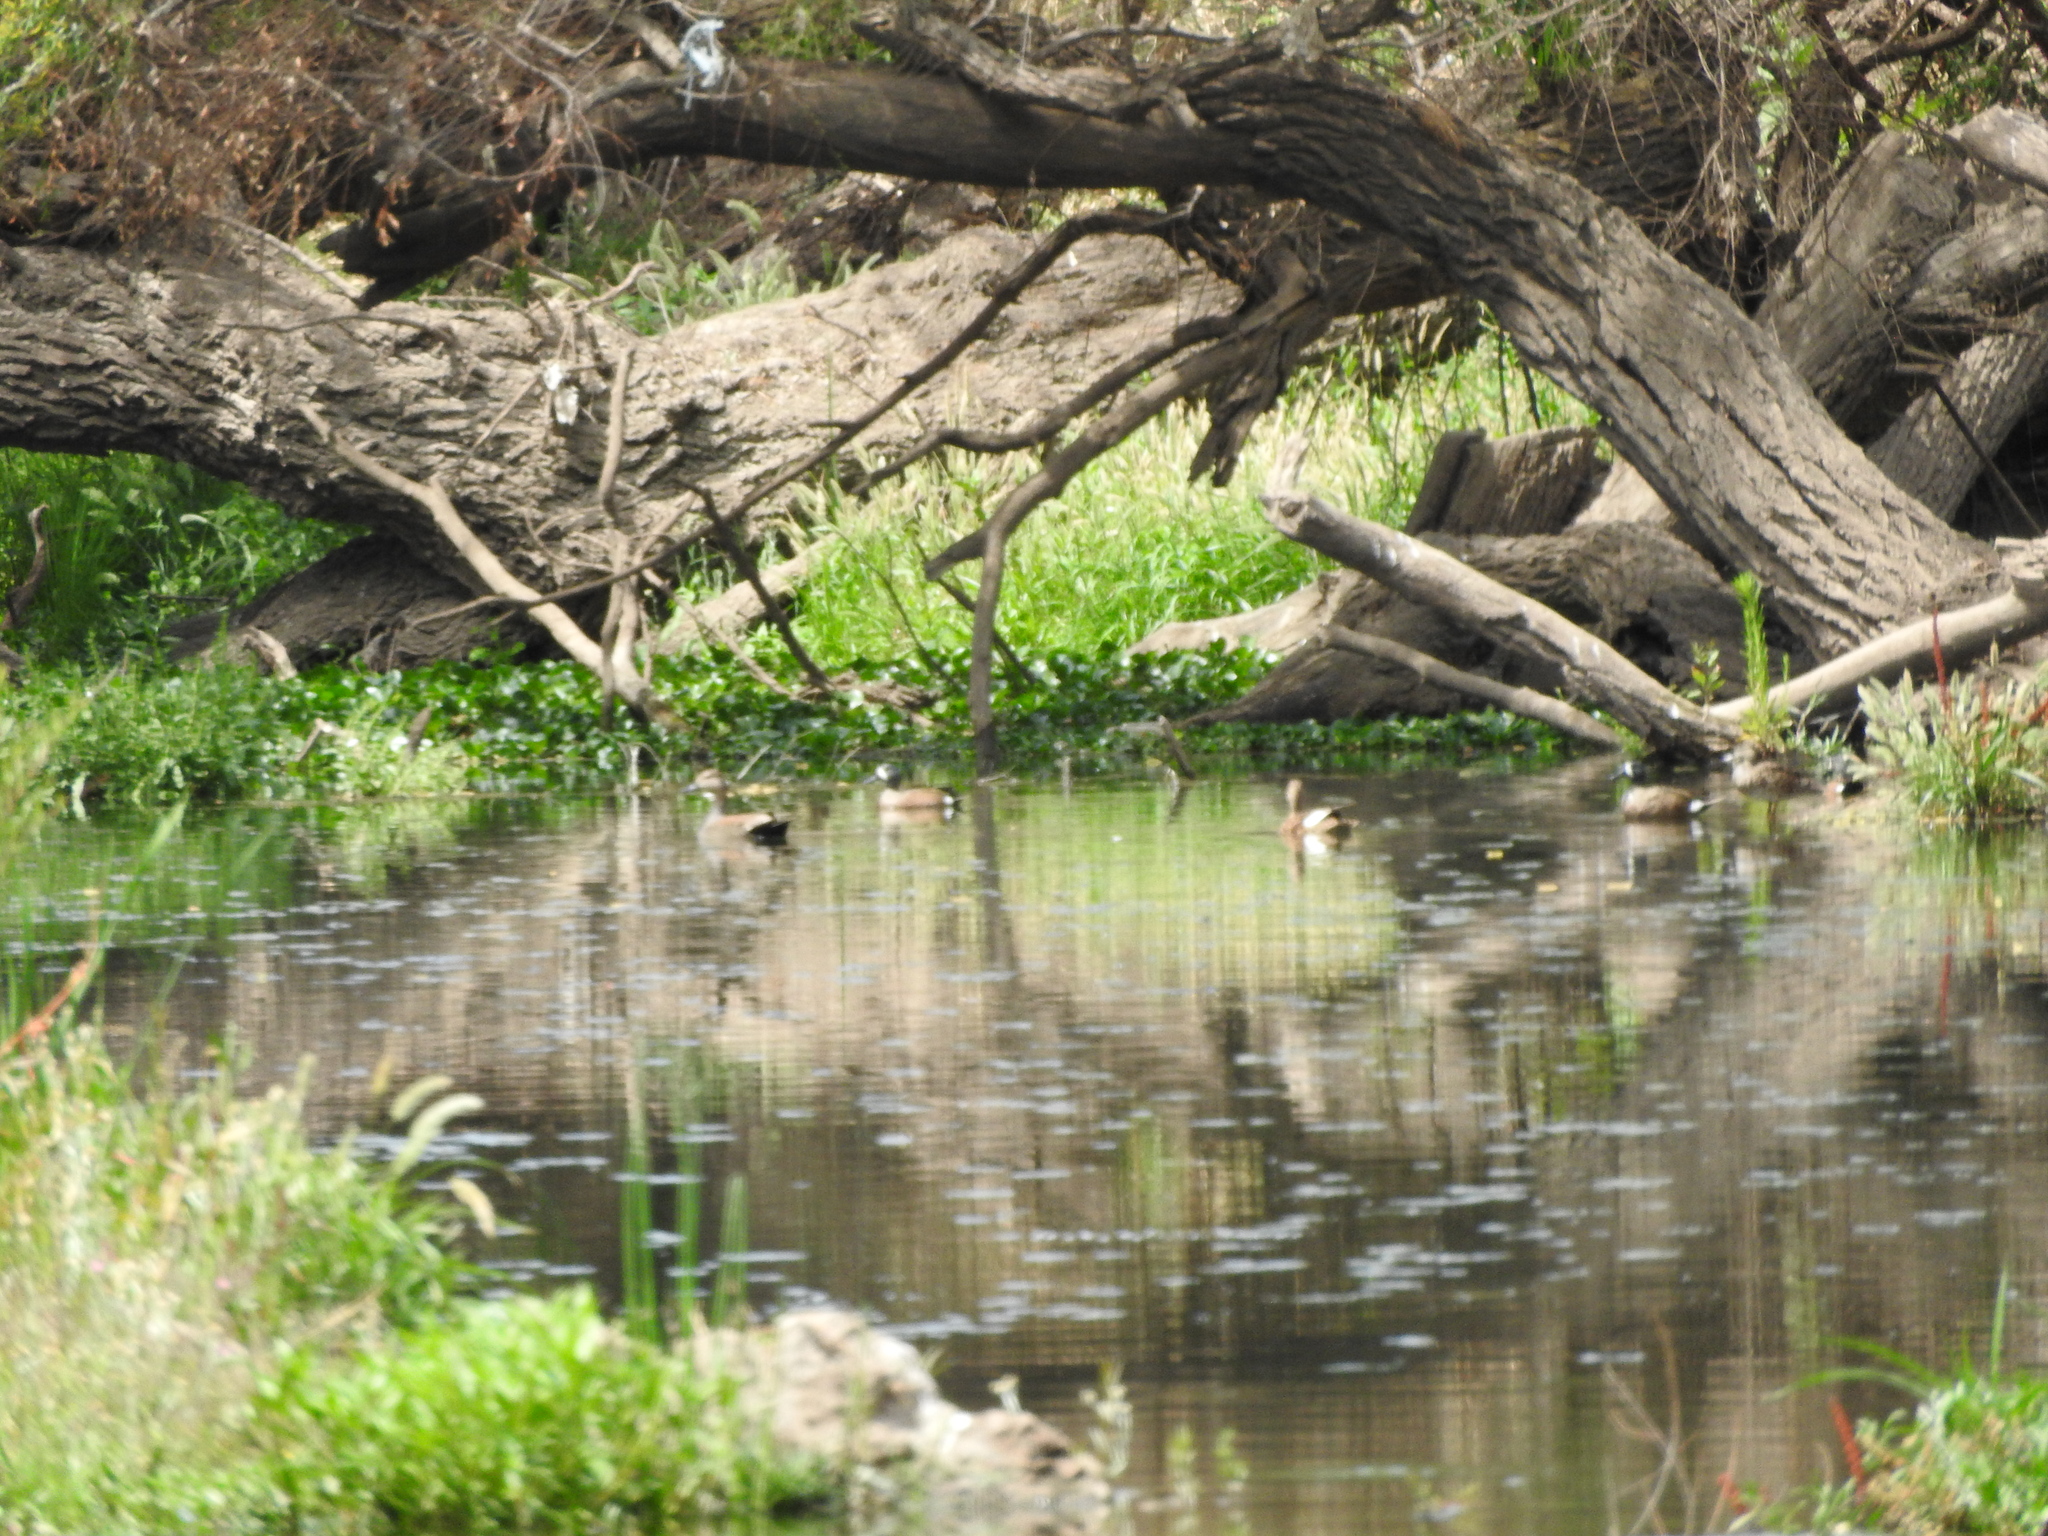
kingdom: Animalia
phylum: Chordata
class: Aves
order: Anseriformes
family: Anatidae
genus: Spatula
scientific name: Spatula discors
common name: Blue-winged teal
